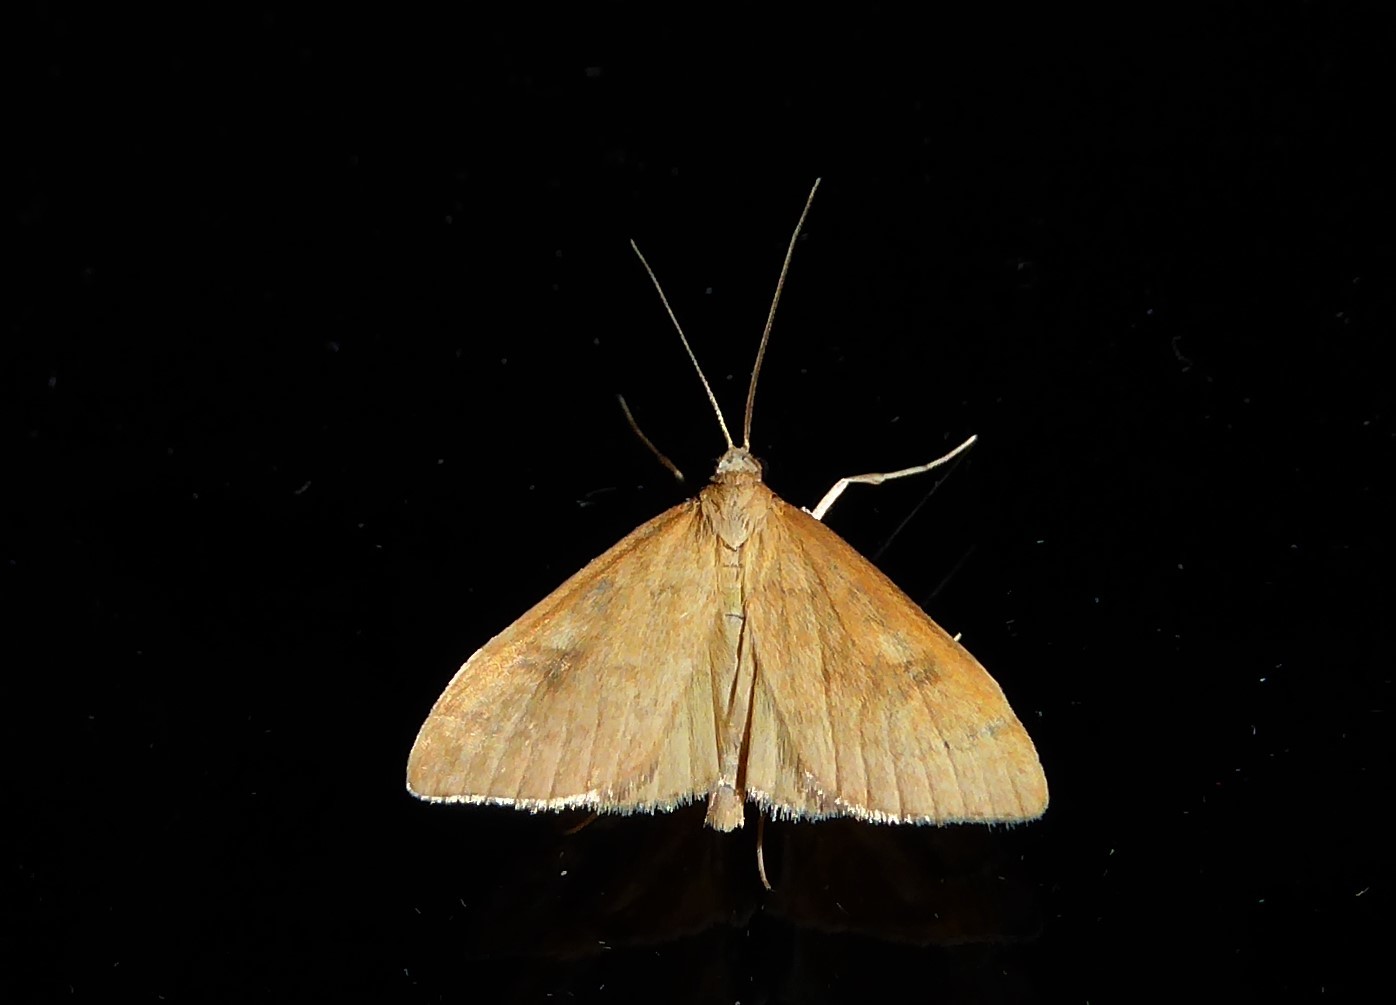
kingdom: Animalia
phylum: Arthropoda
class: Insecta
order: Lepidoptera
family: Crambidae
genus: Udea
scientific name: Udea Mnesictena flavidalis
